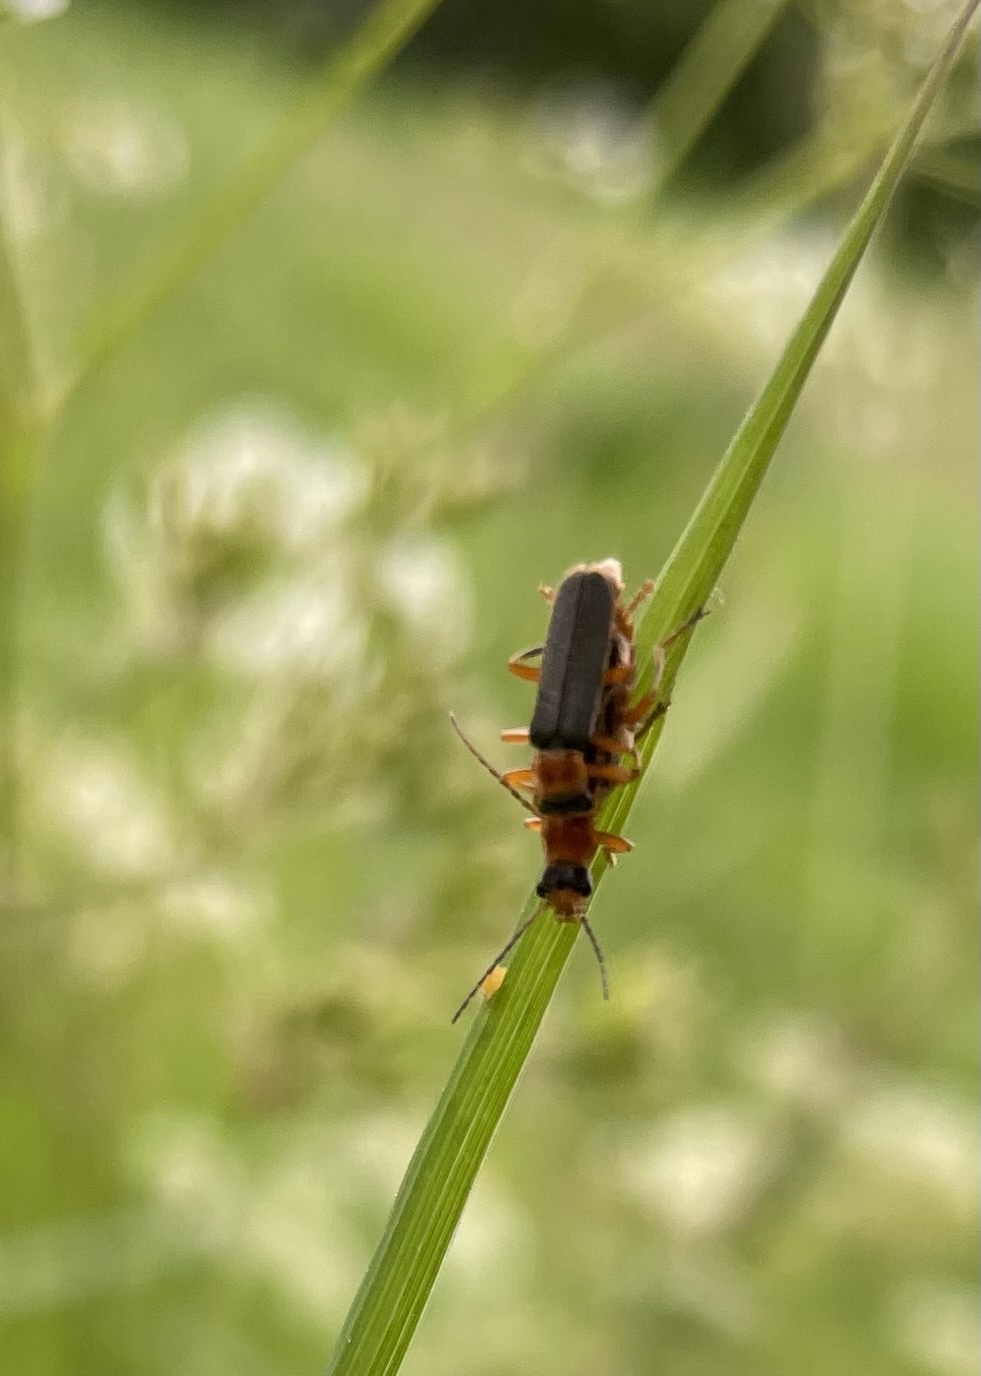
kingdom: Animalia
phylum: Arthropoda
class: Insecta
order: Coleoptera
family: Cantharidae
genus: Cantharis
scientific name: Cantharis lateralis
